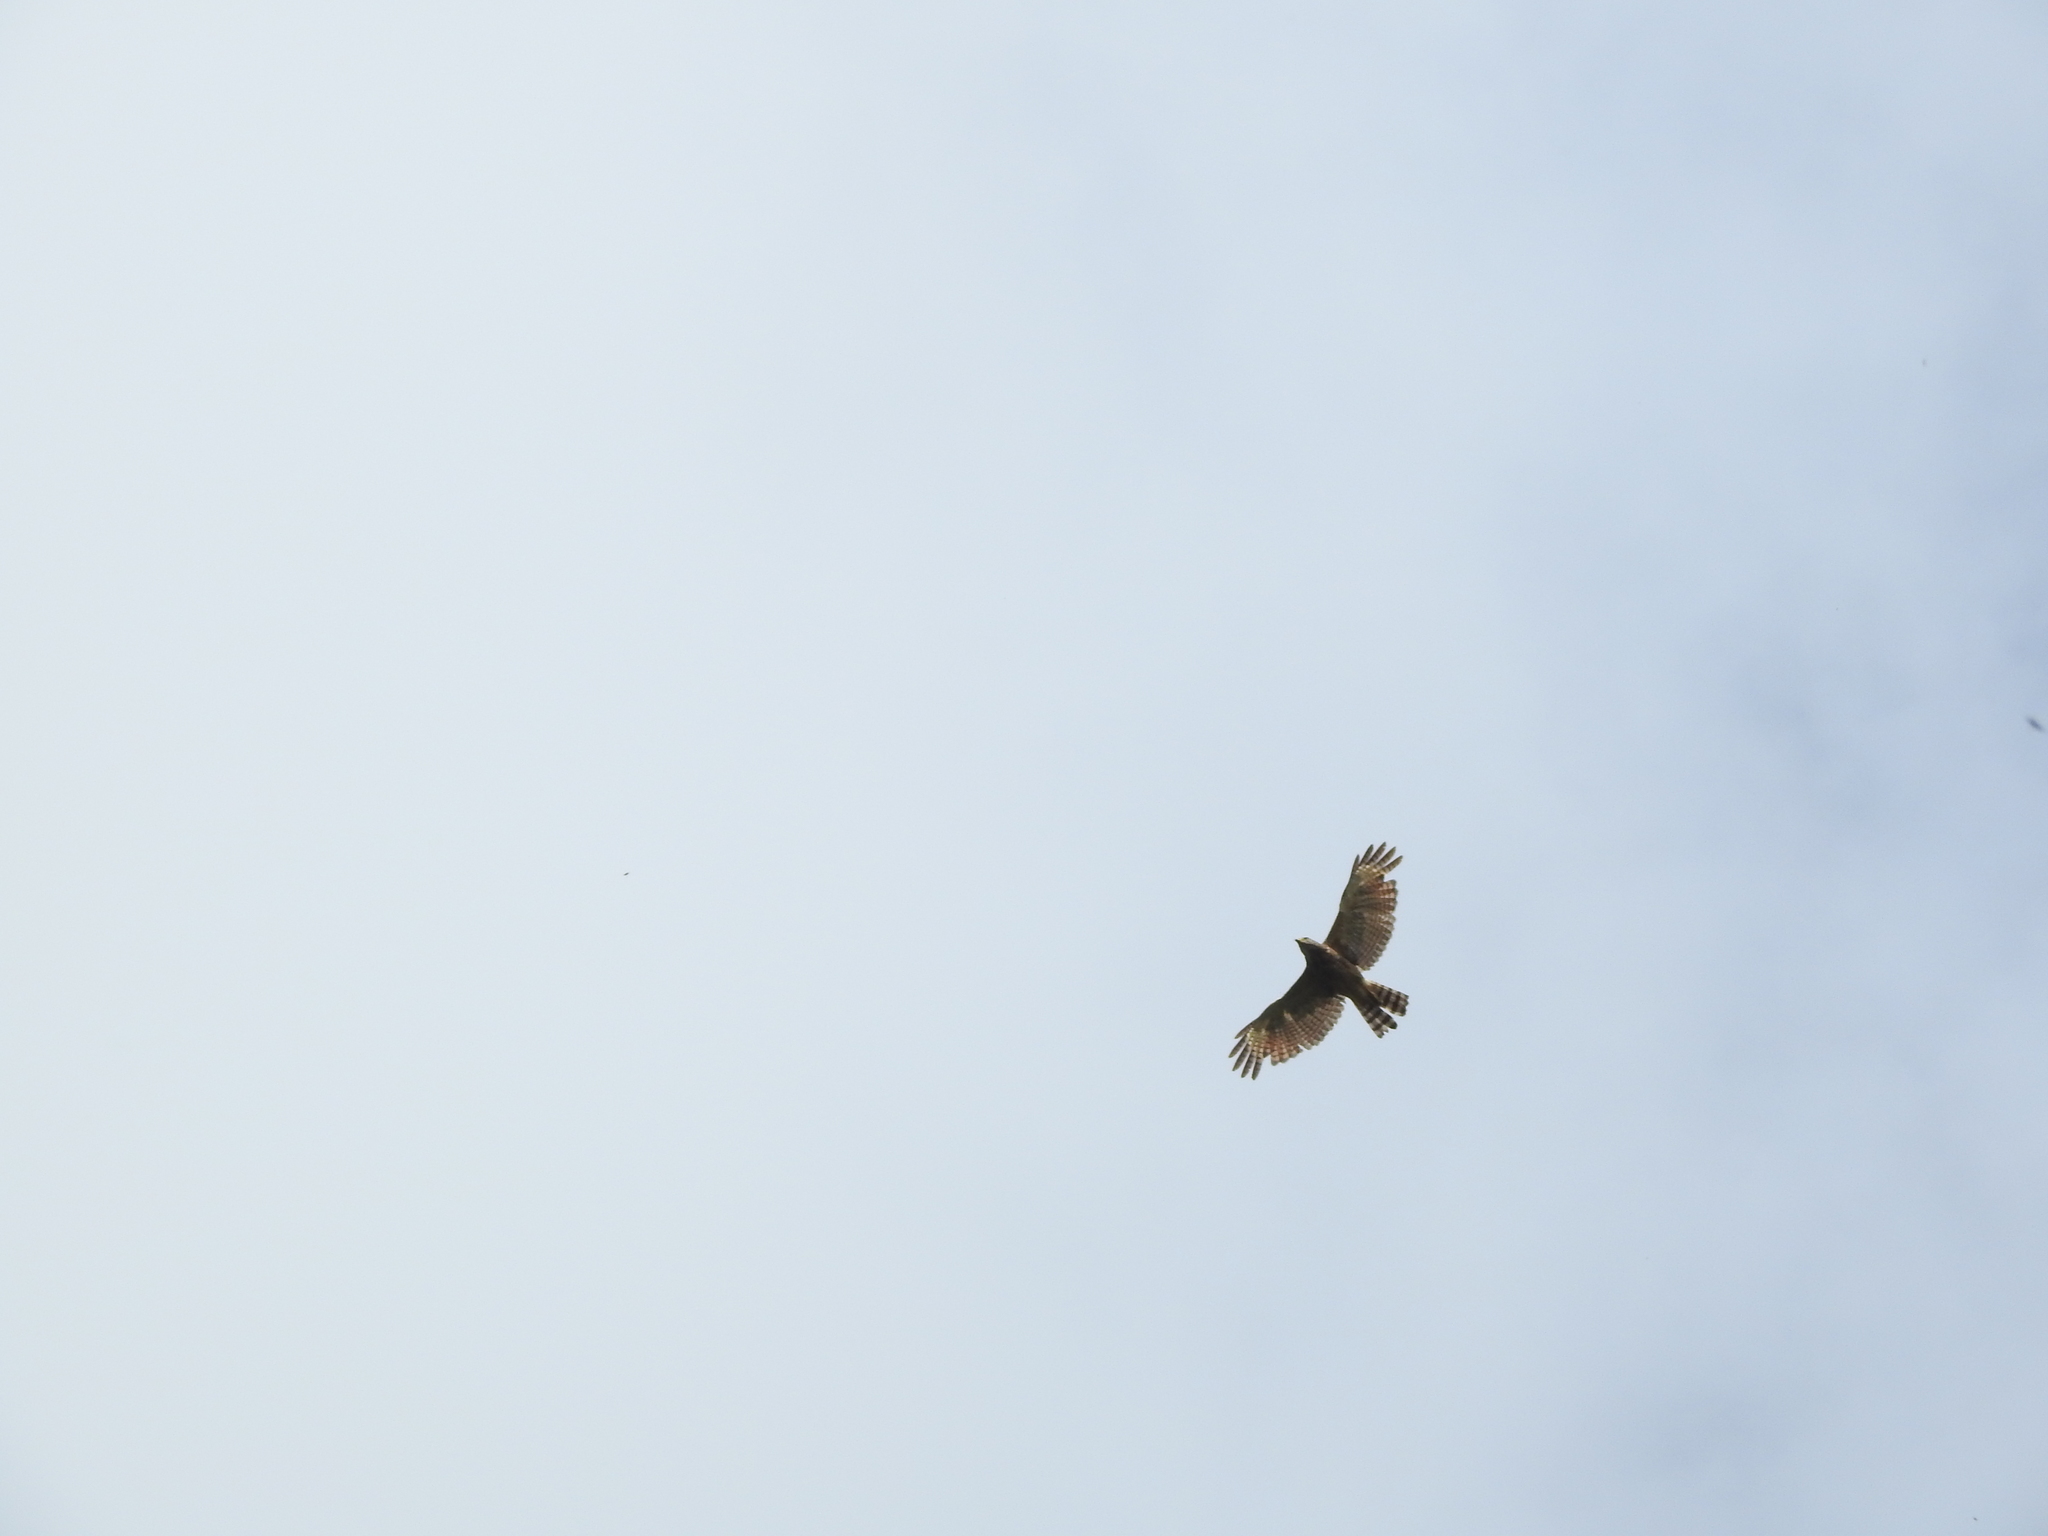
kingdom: Animalia
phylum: Chordata
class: Aves
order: Accipitriformes
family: Accipitridae
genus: Rupornis
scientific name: Rupornis magnirostris
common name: Roadside hawk
